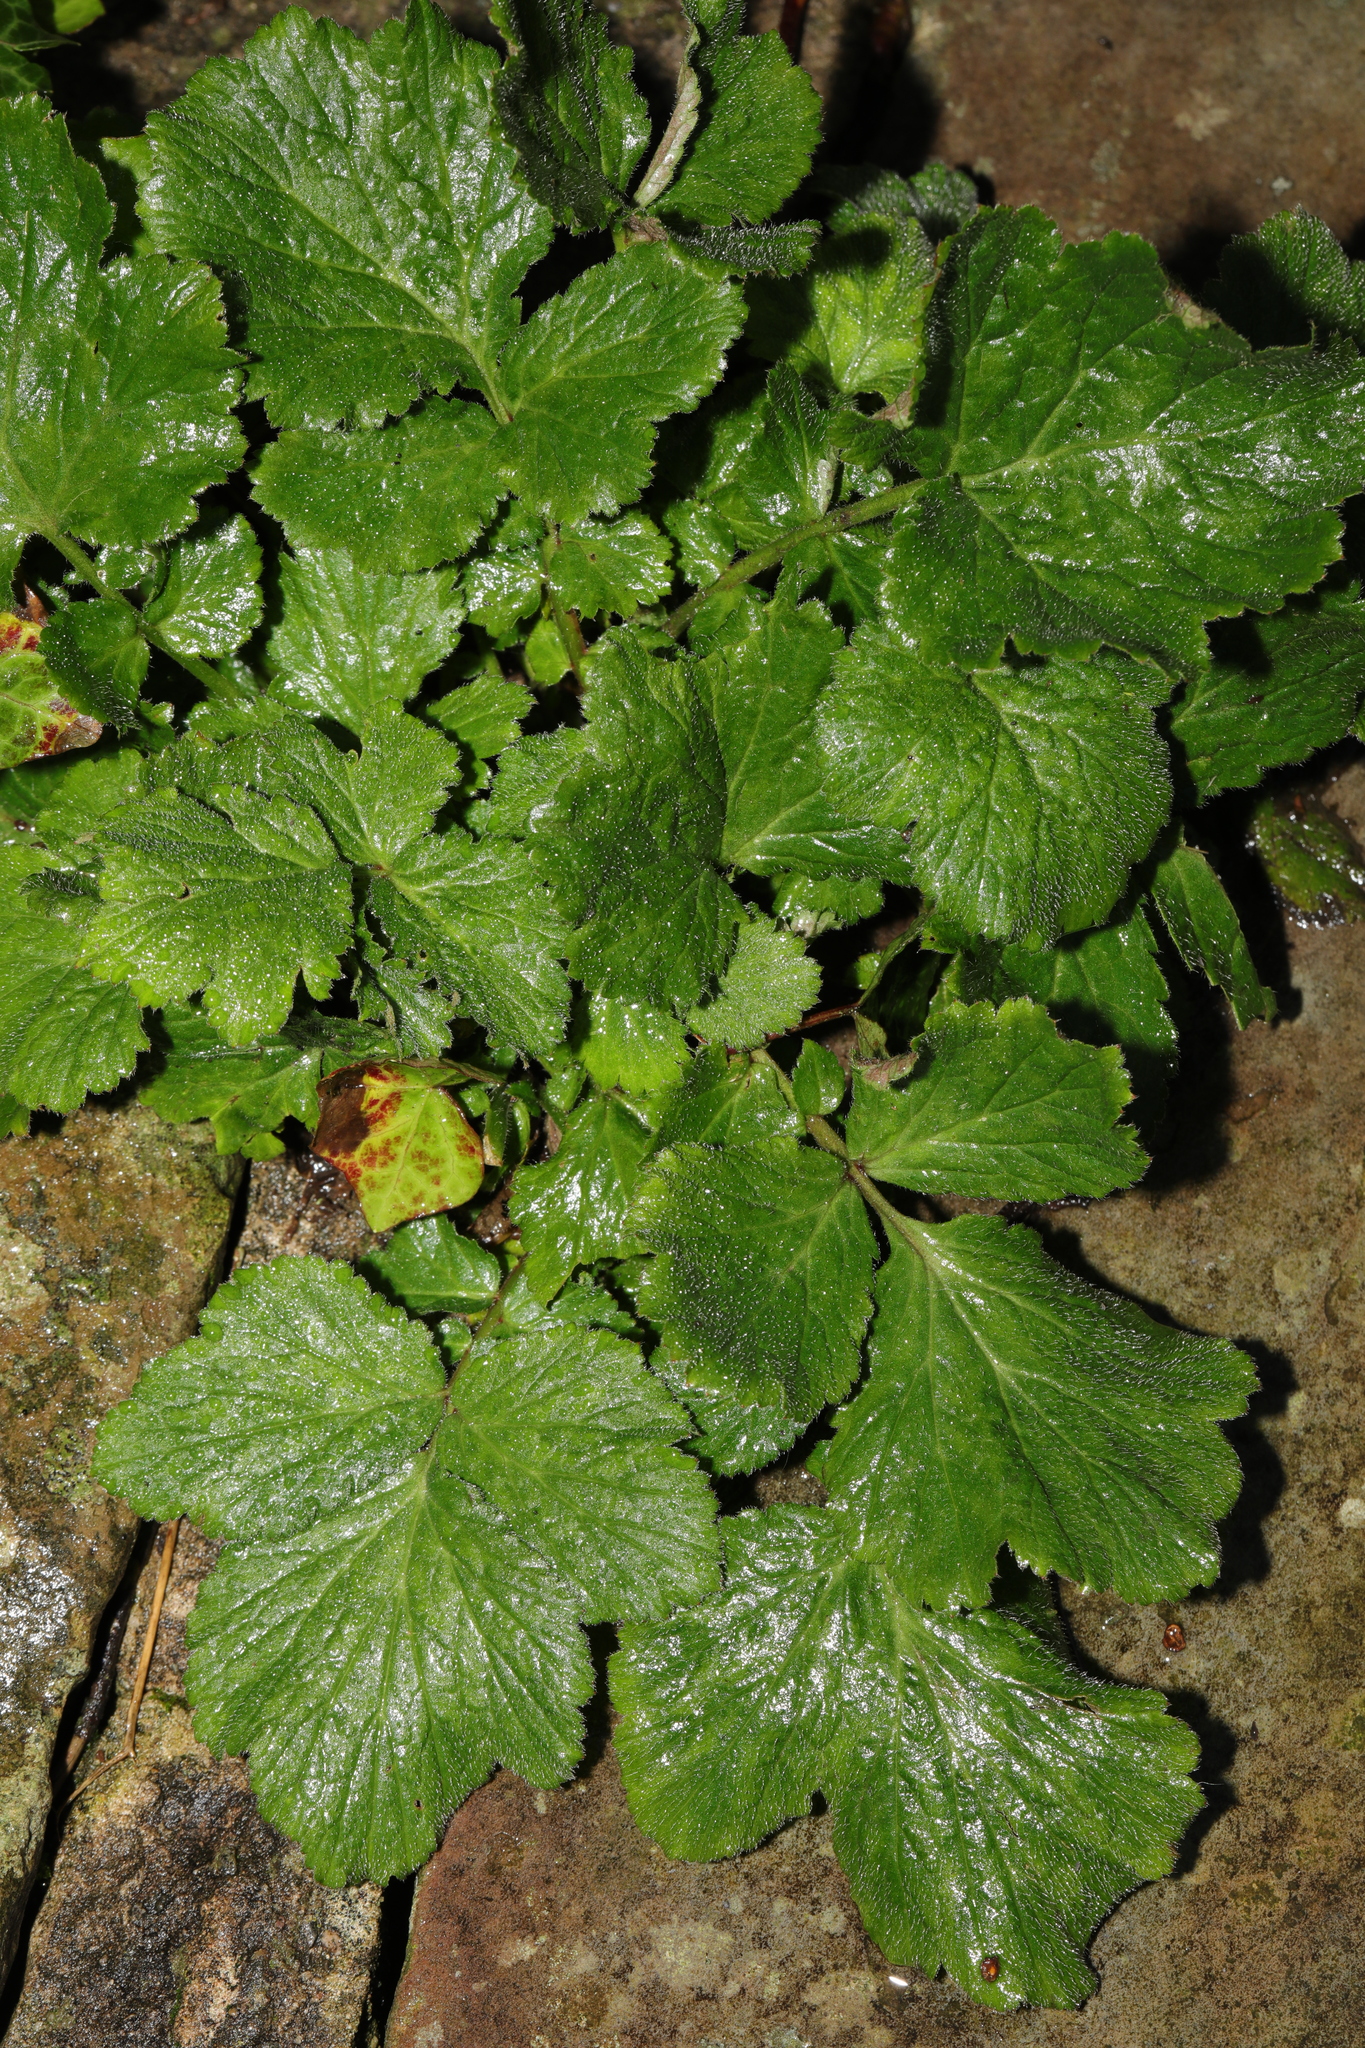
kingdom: Plantae
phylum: Tracheophyta
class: Magnoliopsida
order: Rosales
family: Rosaceae
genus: Geum
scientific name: Geum urbanum
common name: Wood avens
